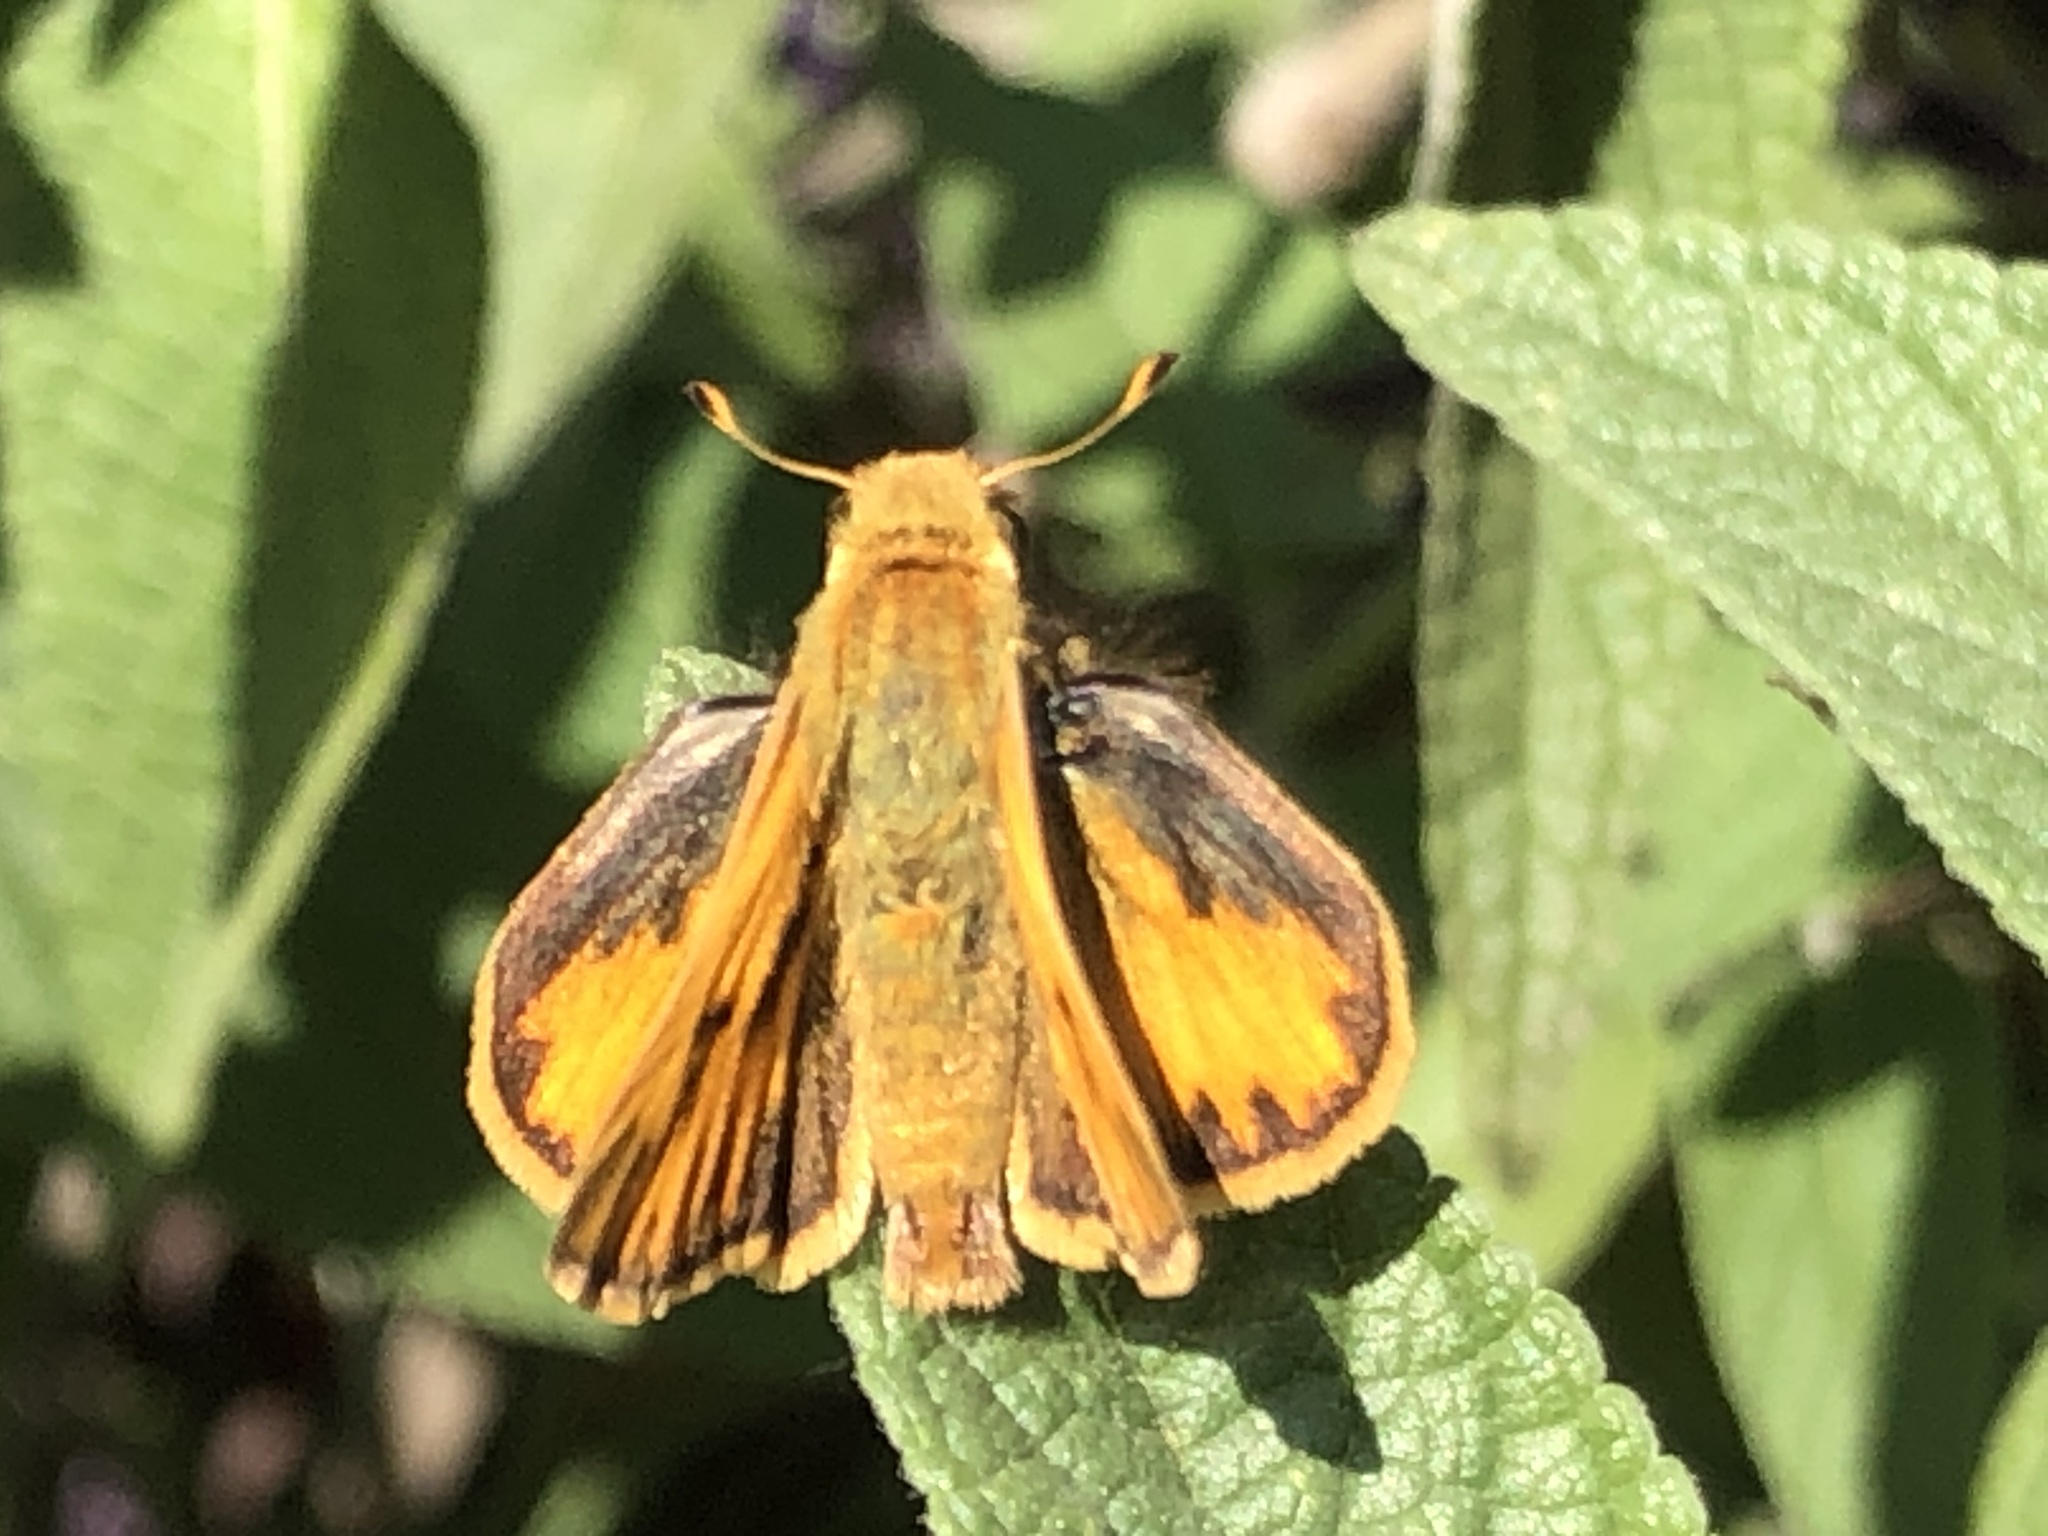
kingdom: Animalia
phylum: Arthropoda
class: Insecta
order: Lepidoptera
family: Hesperiidae
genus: Hylephila
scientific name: Hylephila phyleus
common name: Fiery skipper
